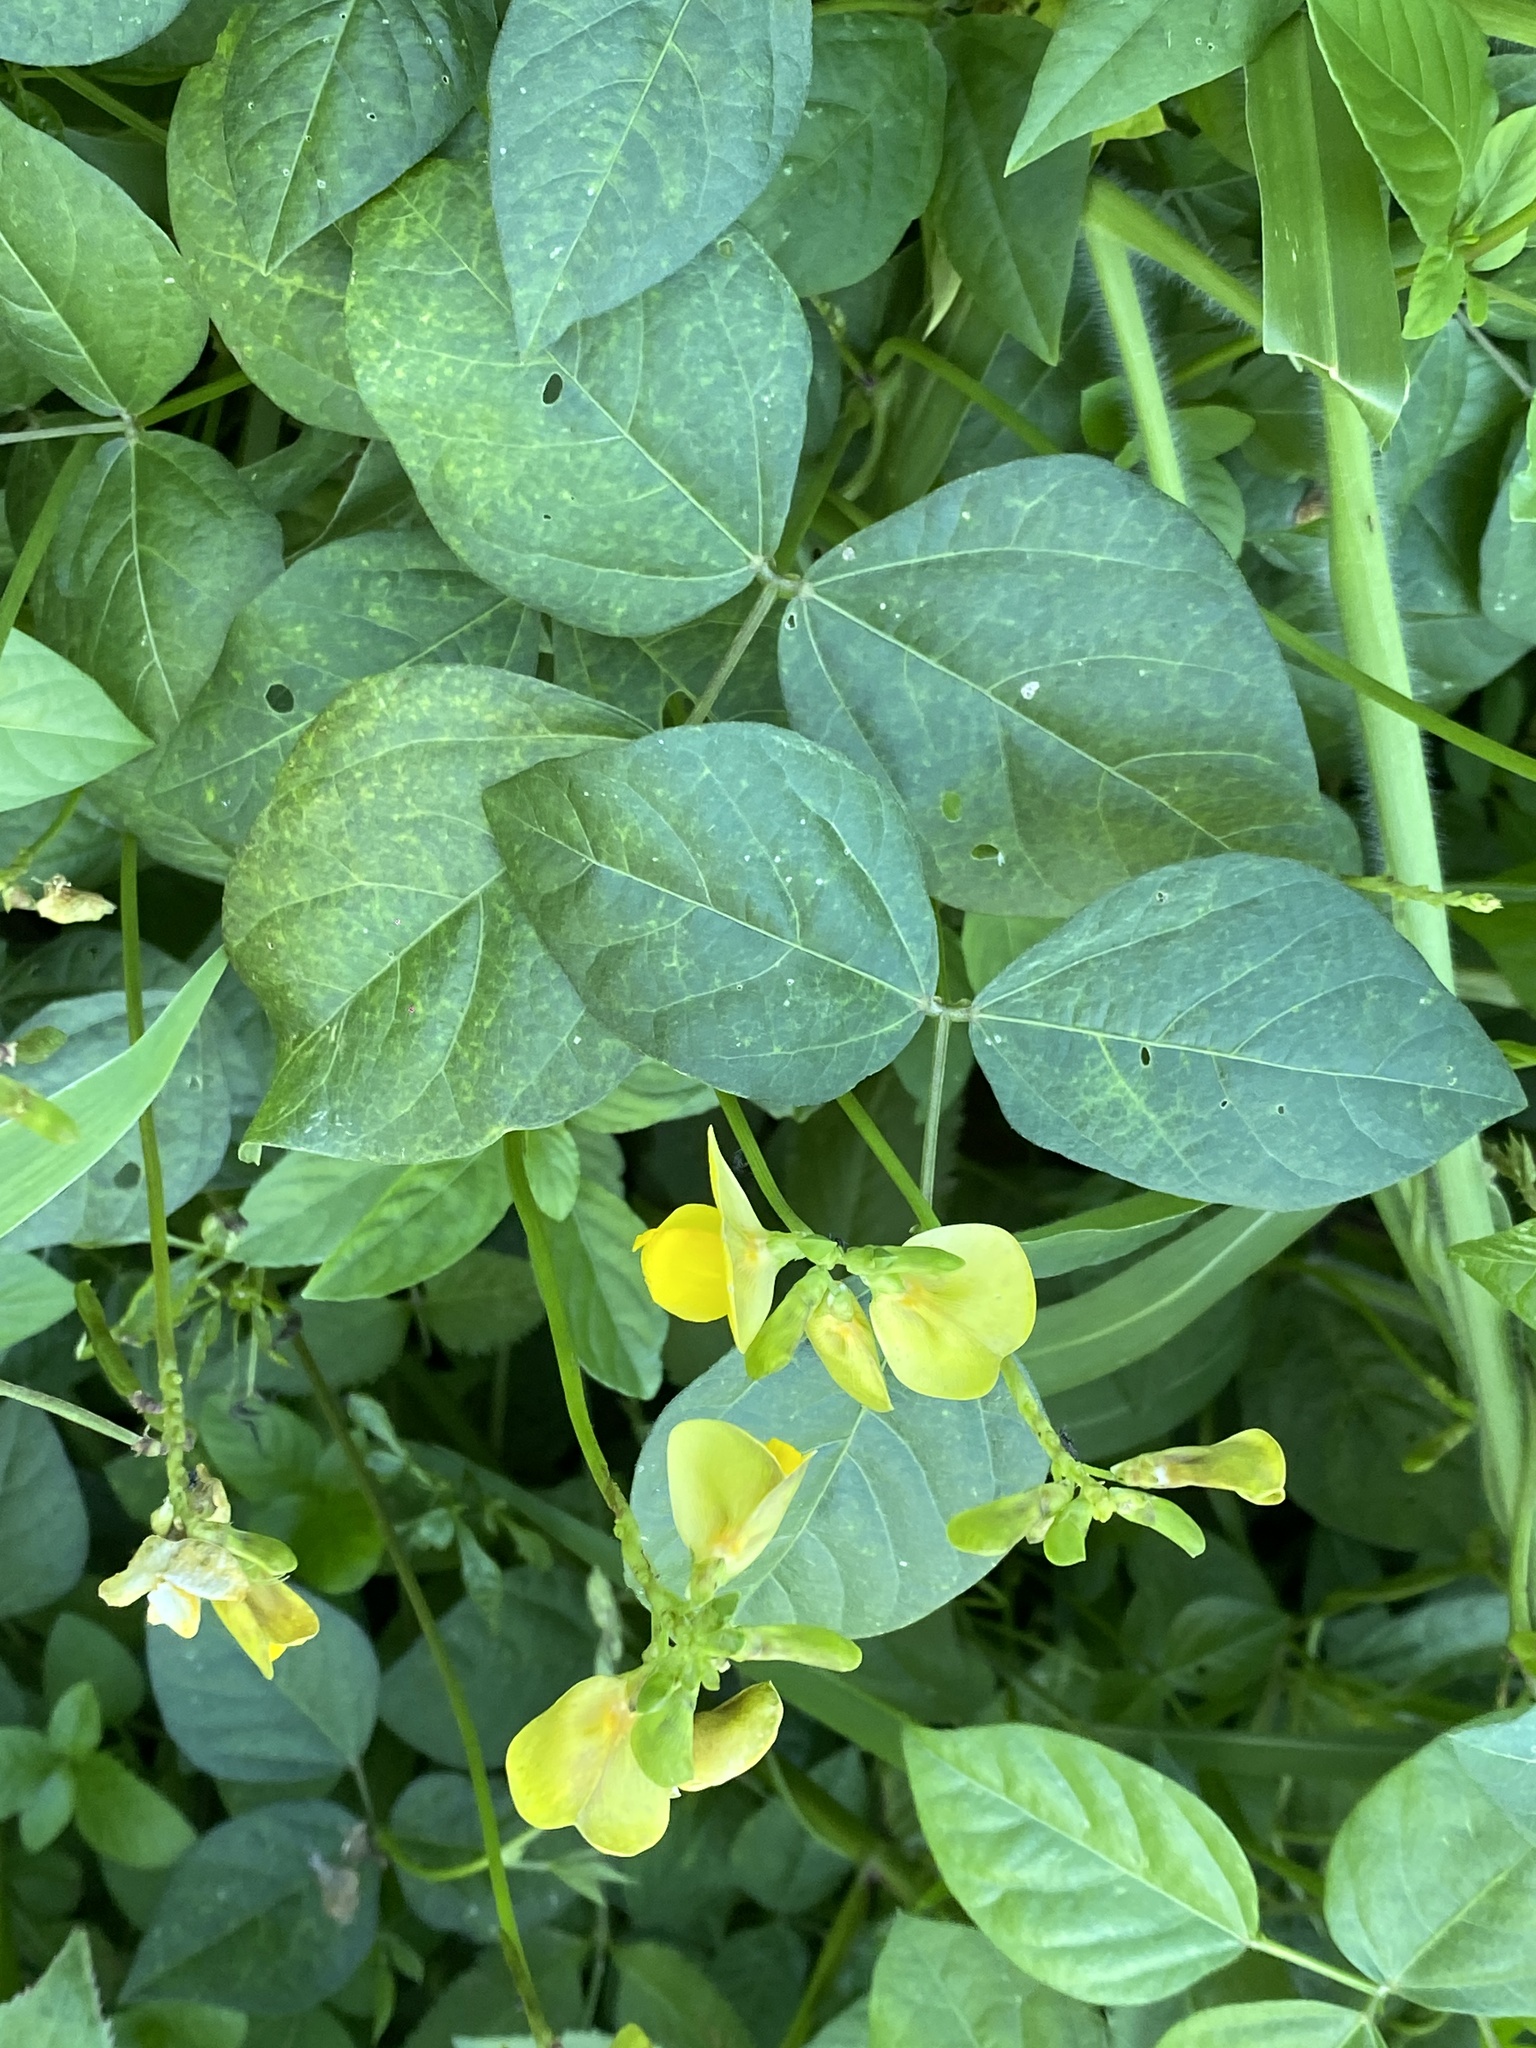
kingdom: Plantae
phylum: Tracheophyta
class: Magnoliopsida
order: Fabales
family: Fabaceae
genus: Vigna
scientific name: Vigna luteola
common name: Hairypod cowpea
